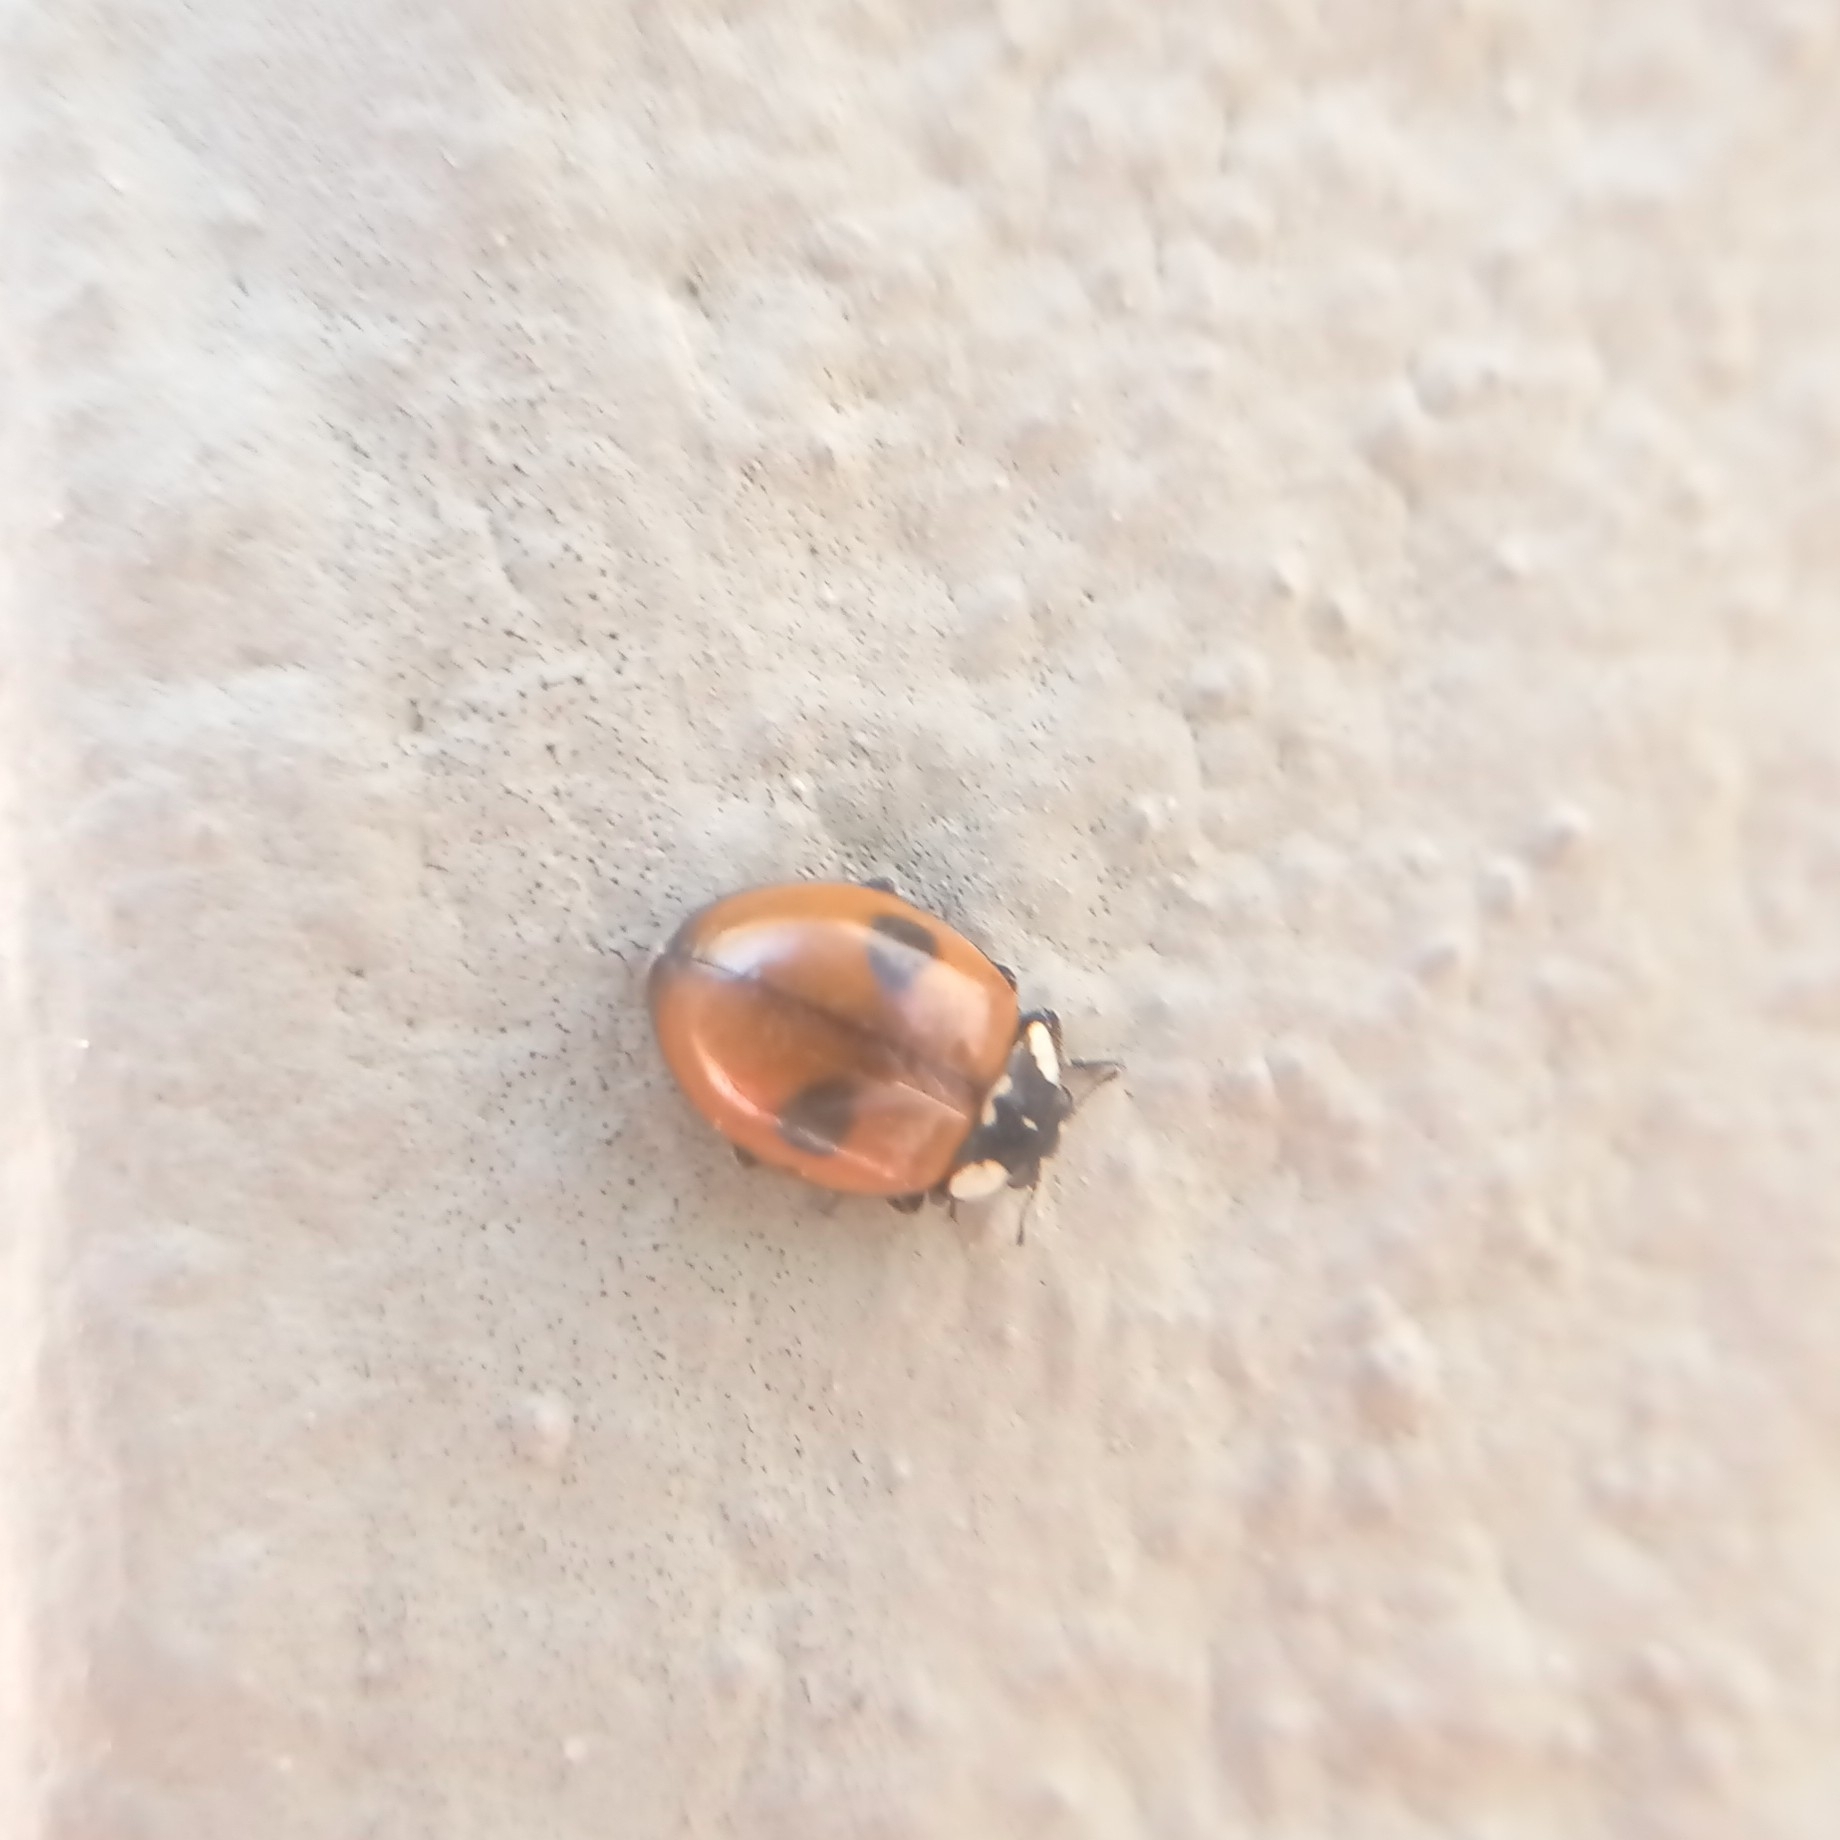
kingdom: Animalia
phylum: Arthropoda
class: Insecta
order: Coleoptera
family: Coccinellidae
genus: Adalia
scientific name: Adalia bipunctata
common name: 2-spot ladybird
